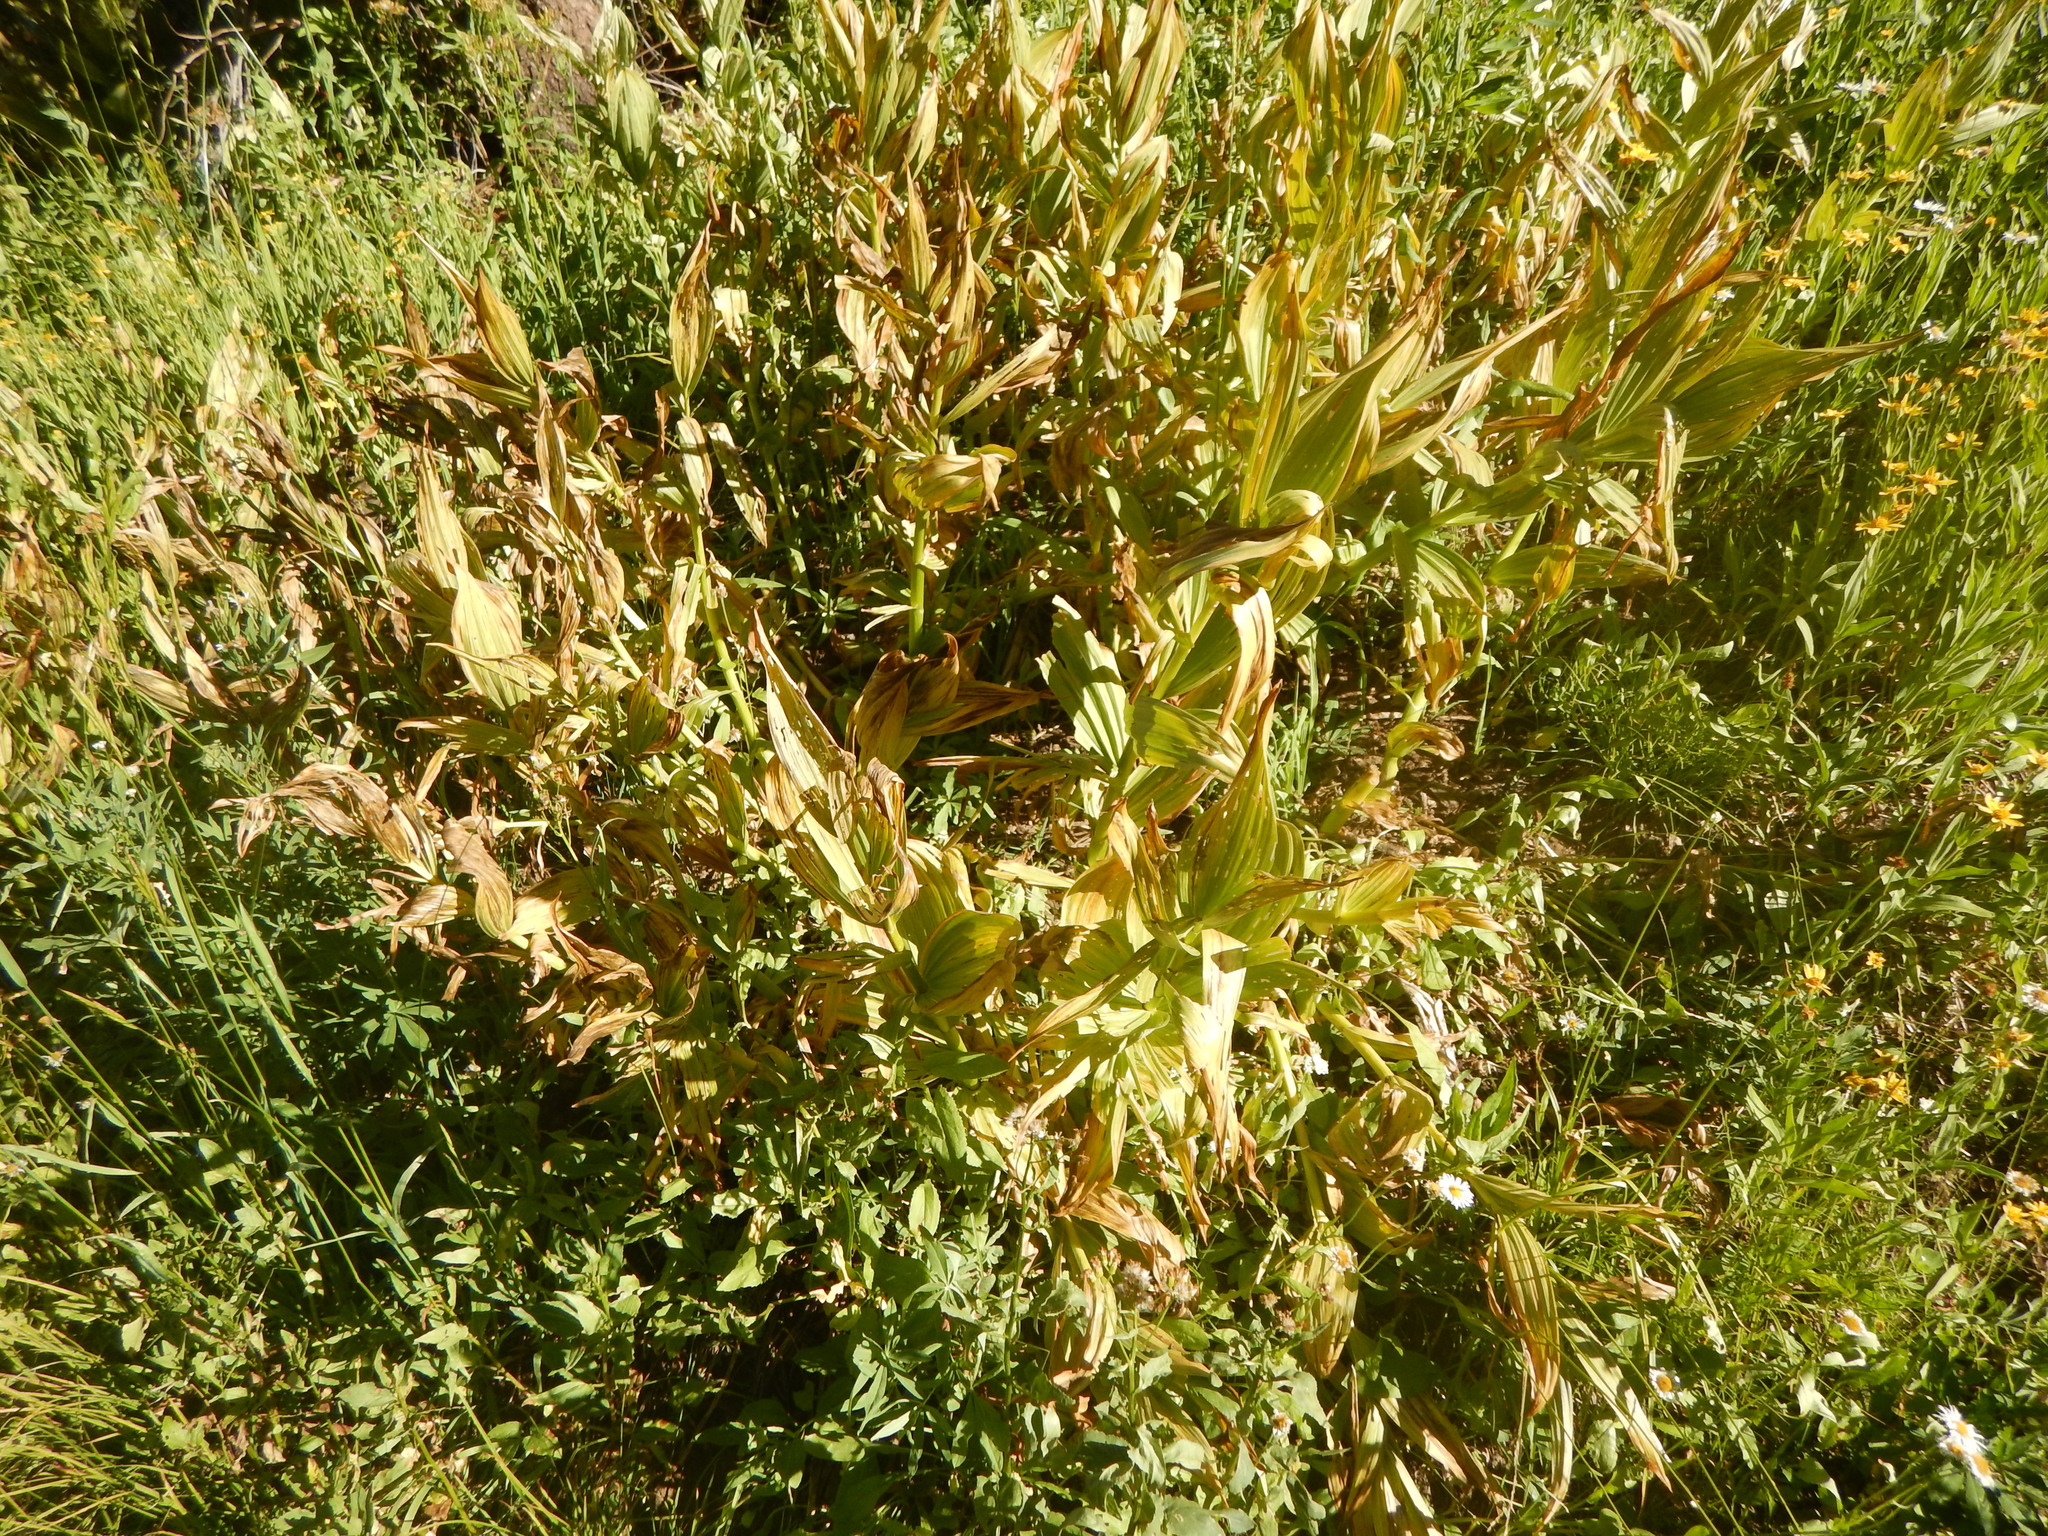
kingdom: Plantae
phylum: Tracheophyta
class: Liliopsida
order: Liliales
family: Melanthiaceae
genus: Veratrum
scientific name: Veratrum californicum
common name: California veratrum
